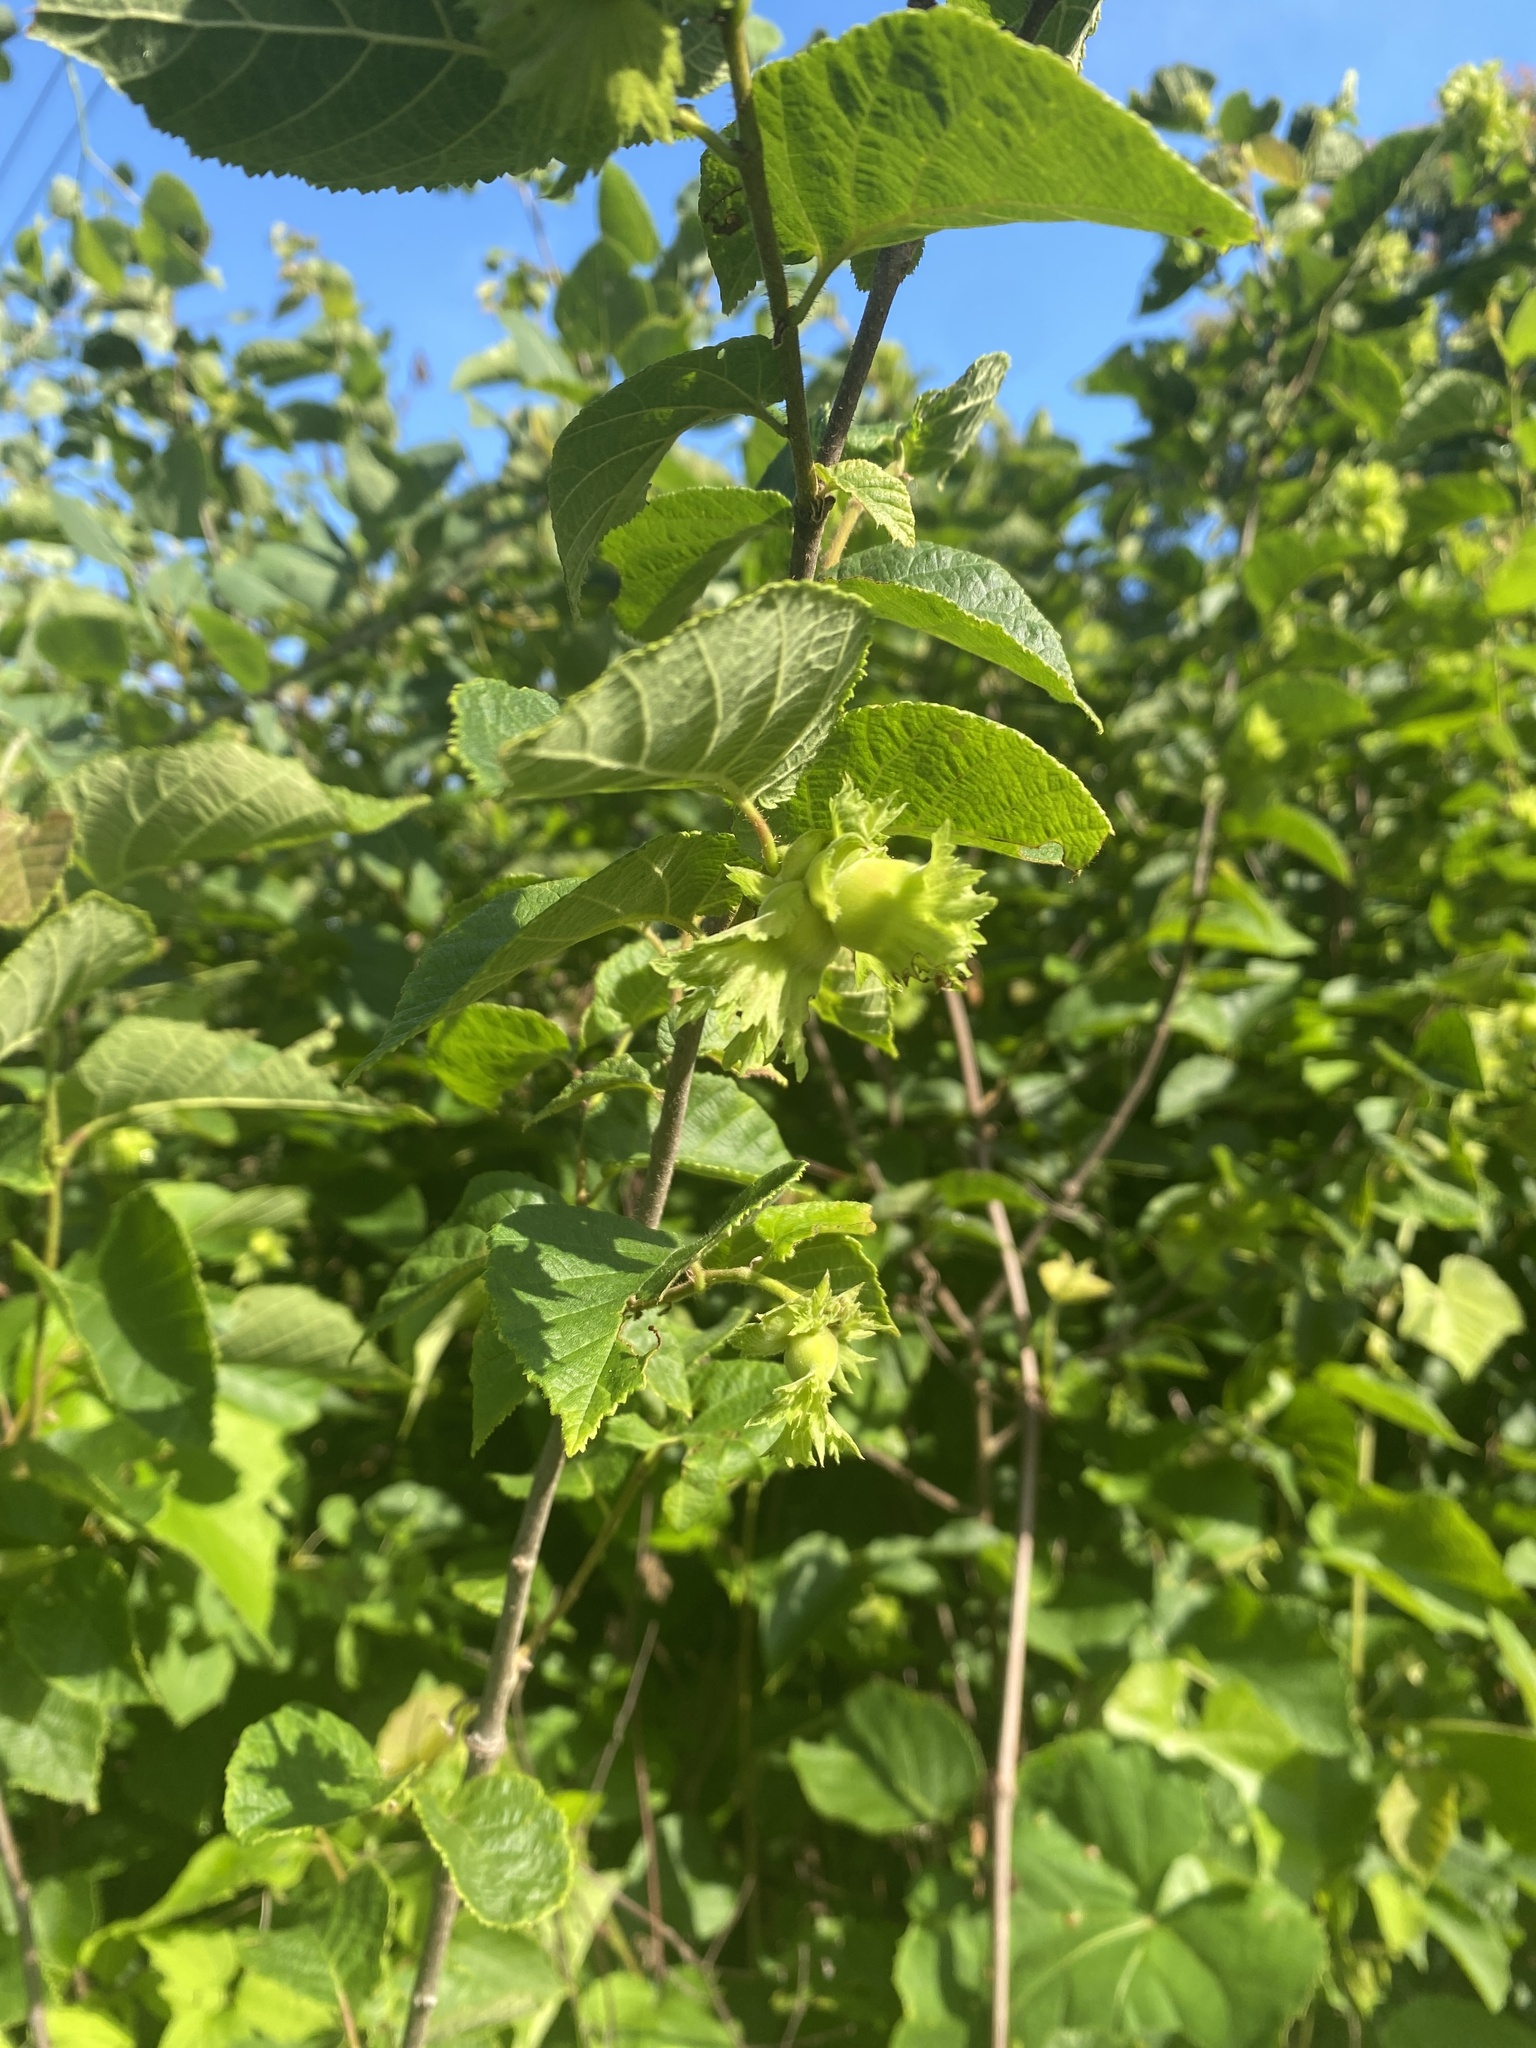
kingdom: Plantae
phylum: Tracheophyta
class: Magnoliopsida
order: Fagales
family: Betulaceae
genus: Corylus
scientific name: Corylus americana
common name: American hazel
